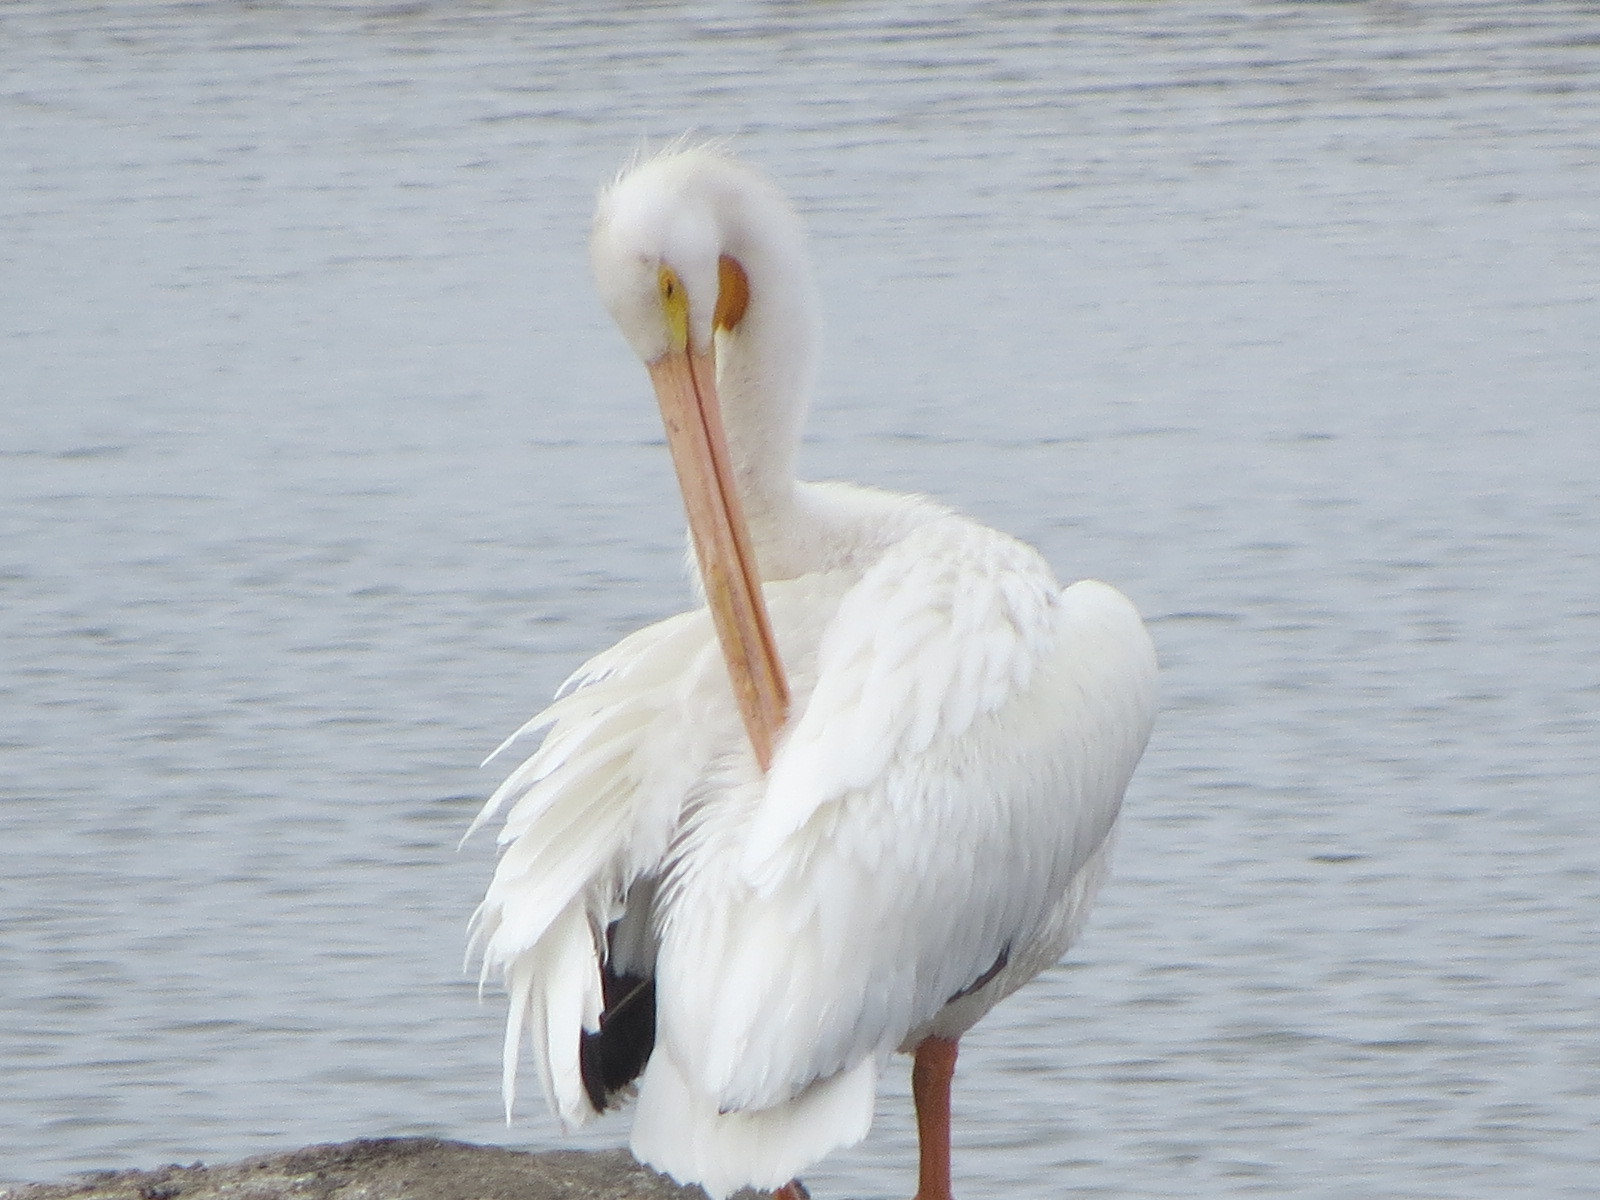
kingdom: Animalia
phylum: Chordata
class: Aves
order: Pelecaniformes
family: Pelecanidae
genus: Pelecanus
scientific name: Pelecanus erythrorhynchos
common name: American white pelican
